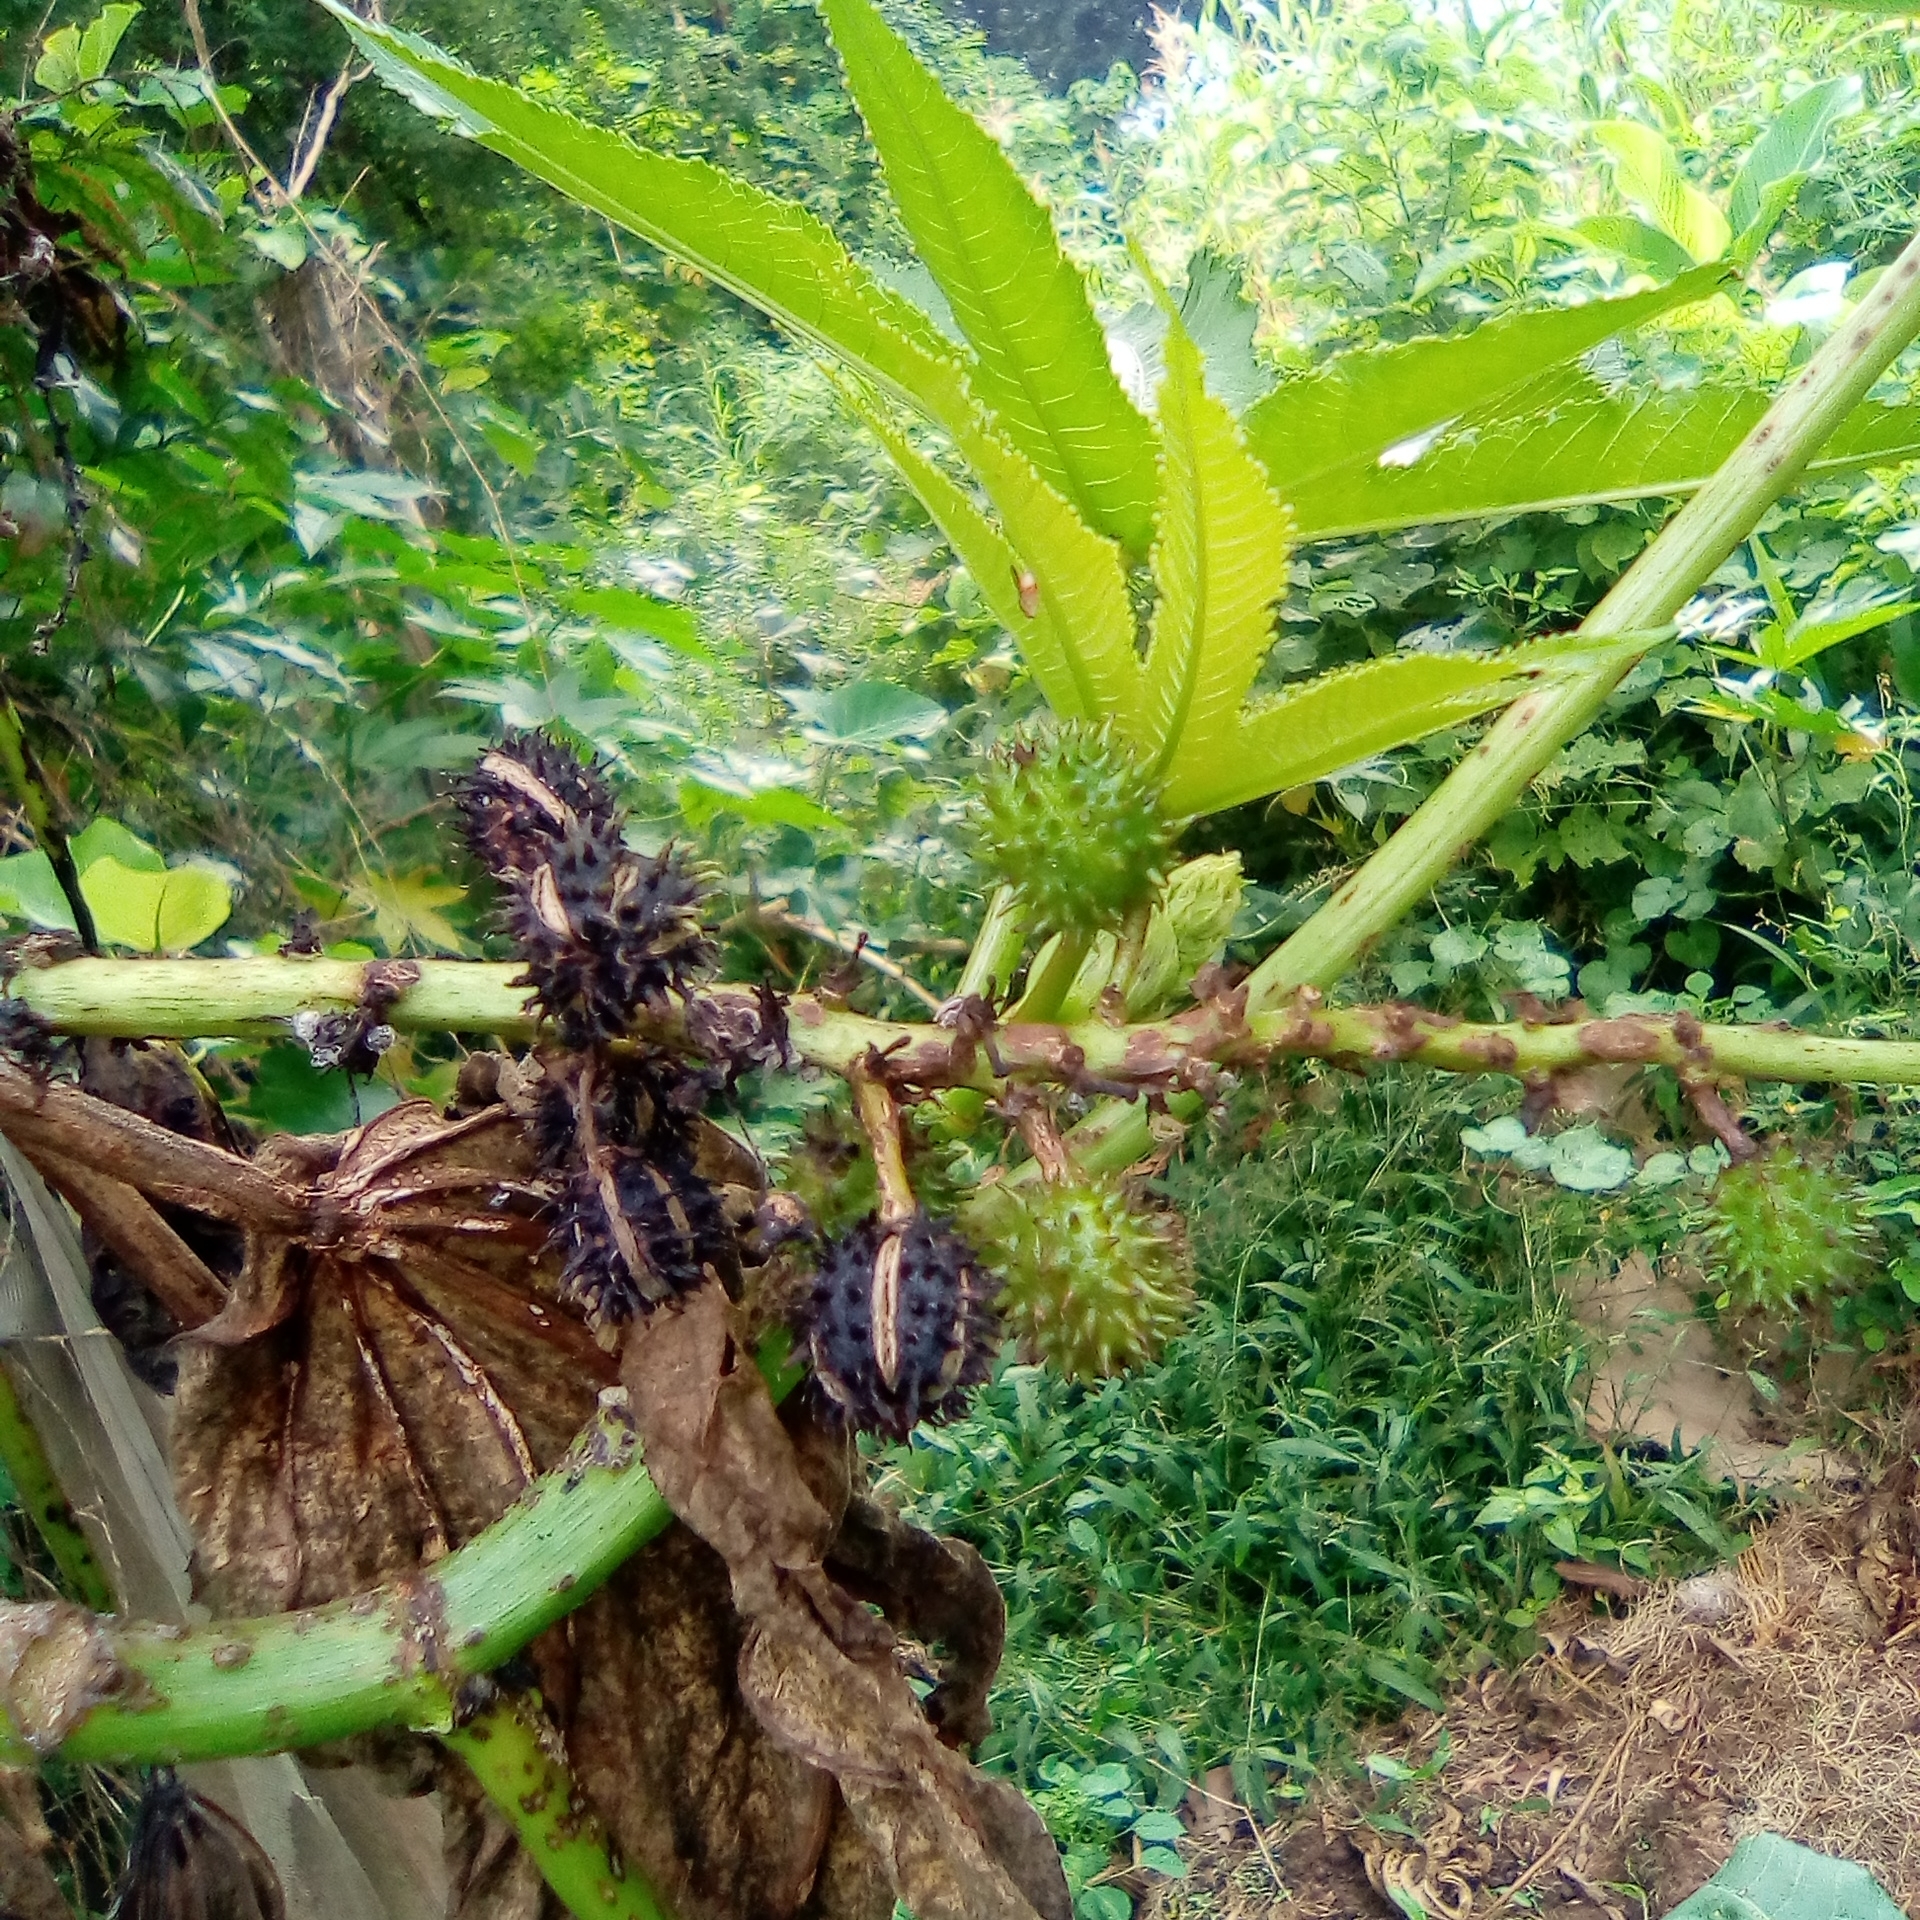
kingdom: Plantae
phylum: Tracheophyta
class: Magnoliopsida
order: Malpighiales
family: Euphorbiaceae
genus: Ricinus
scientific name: Ricinus communis
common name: Castor-oil-plant
